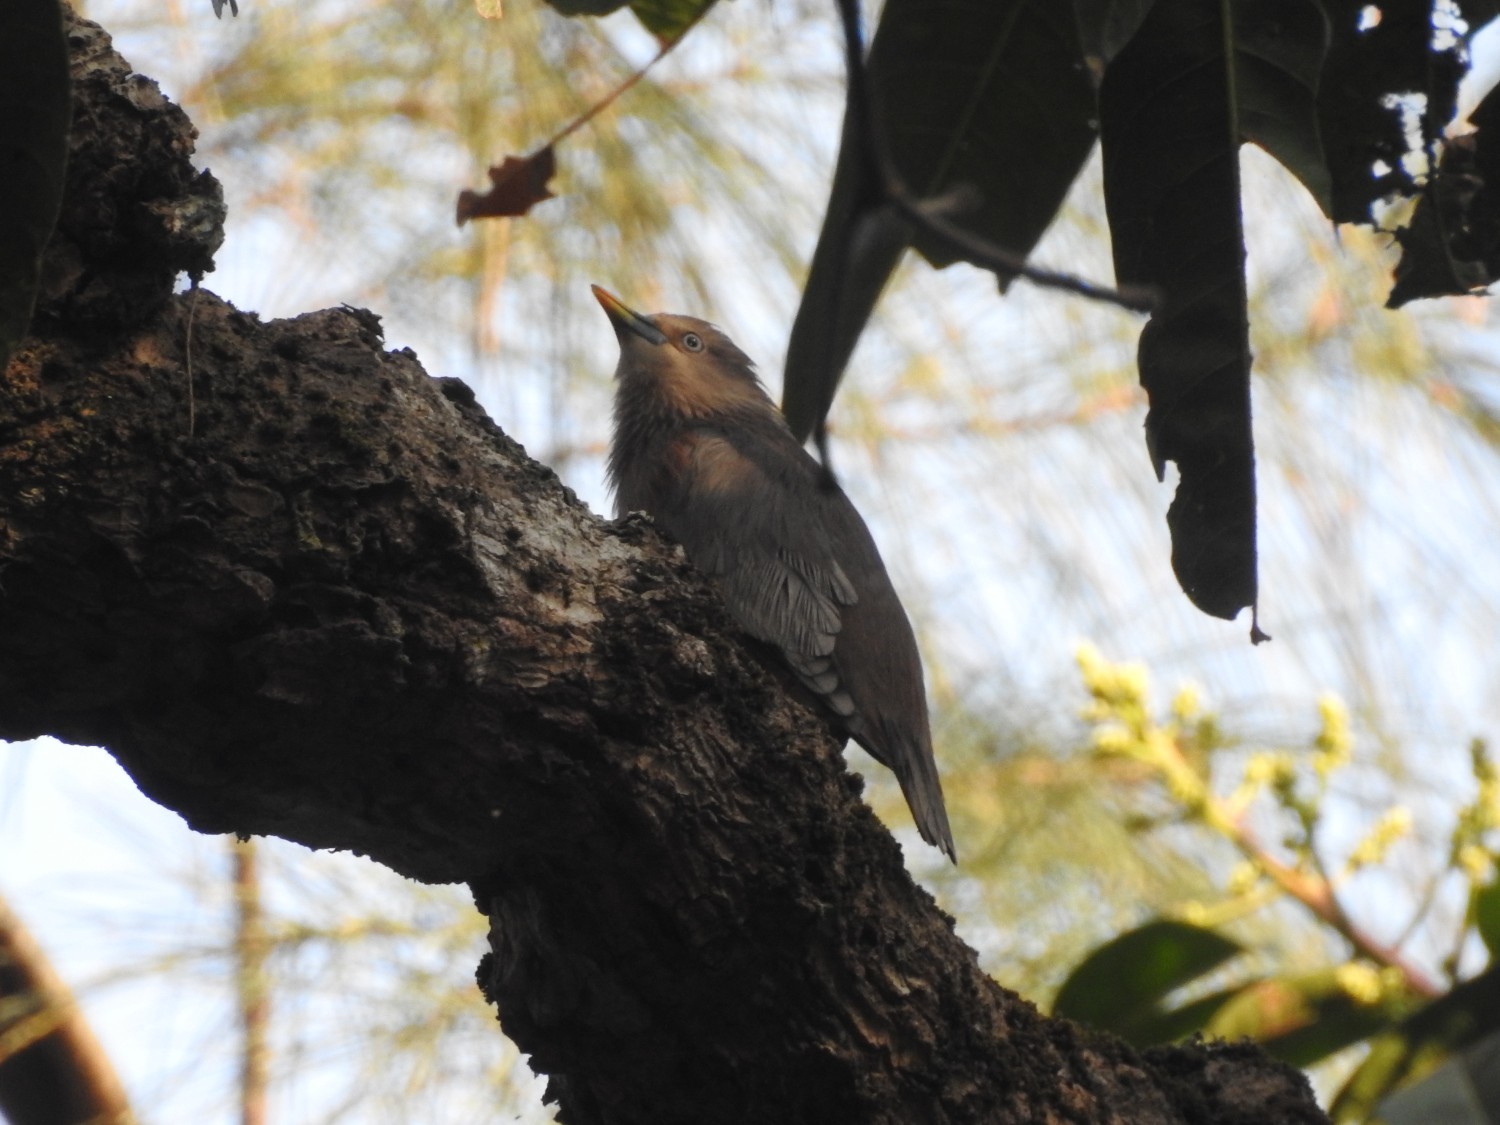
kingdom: Animalia
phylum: Chordata
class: Aves
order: Passeriformes
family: Sturnidae
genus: Sturnia
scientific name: Sturnia malabarica
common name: Chestnut-tailed starling
